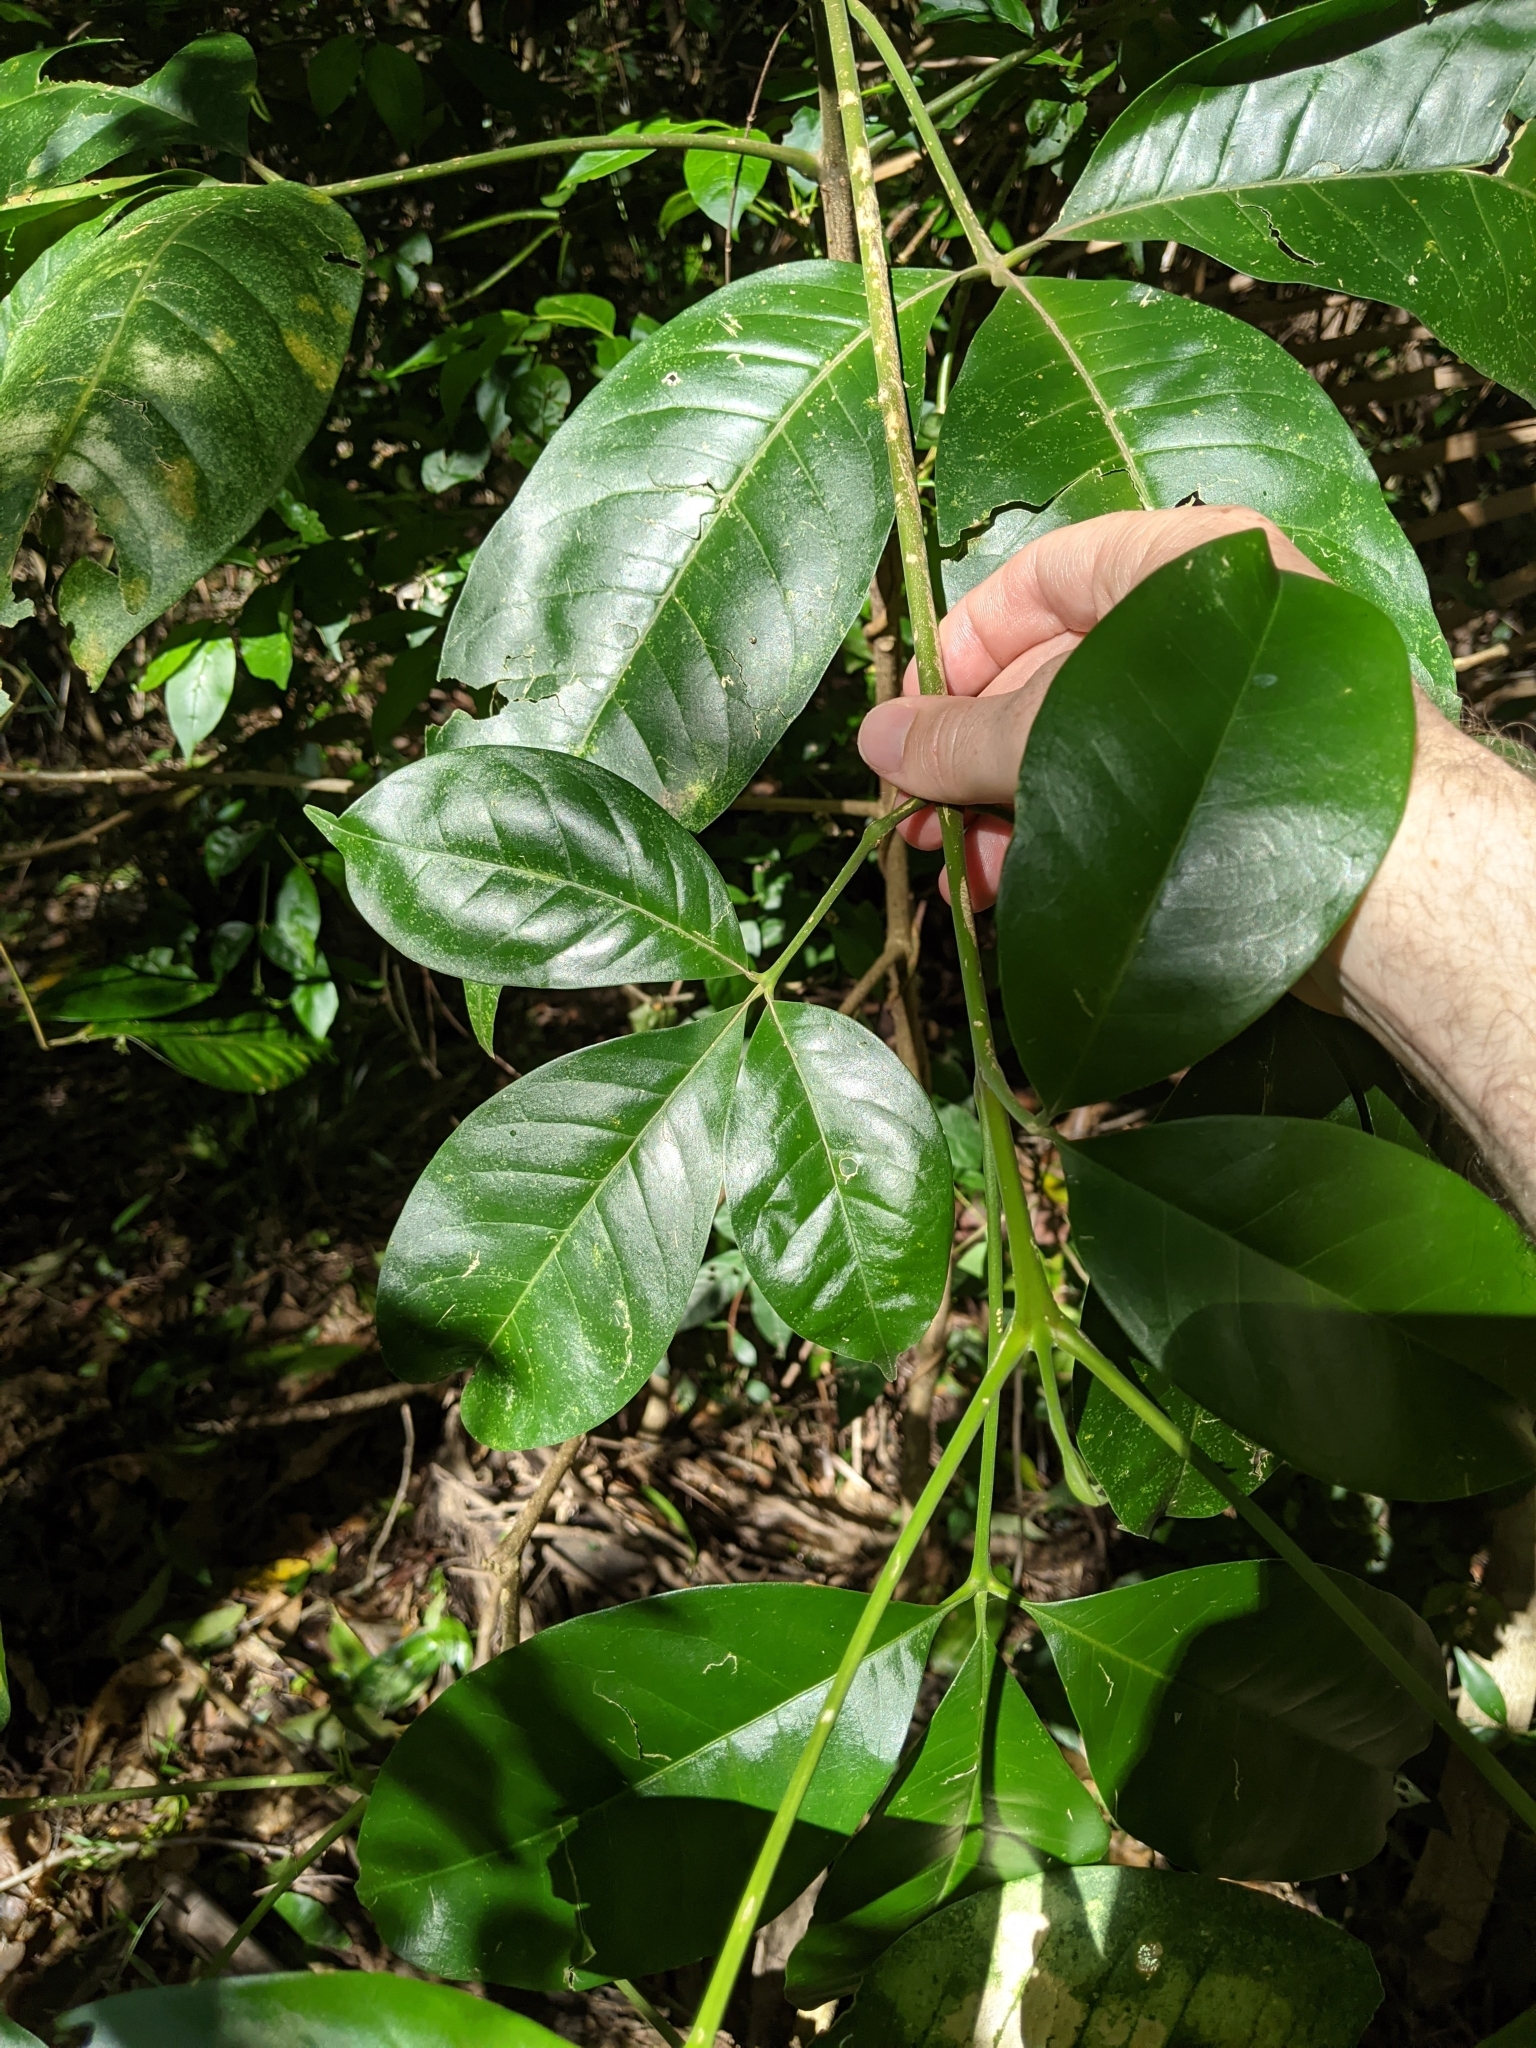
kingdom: Plantae
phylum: Tracheophyta
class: Magnoliopsida
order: Sapindales
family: Rutaceae
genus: Melicope
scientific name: Melicope elleryana
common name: Pink euodia
